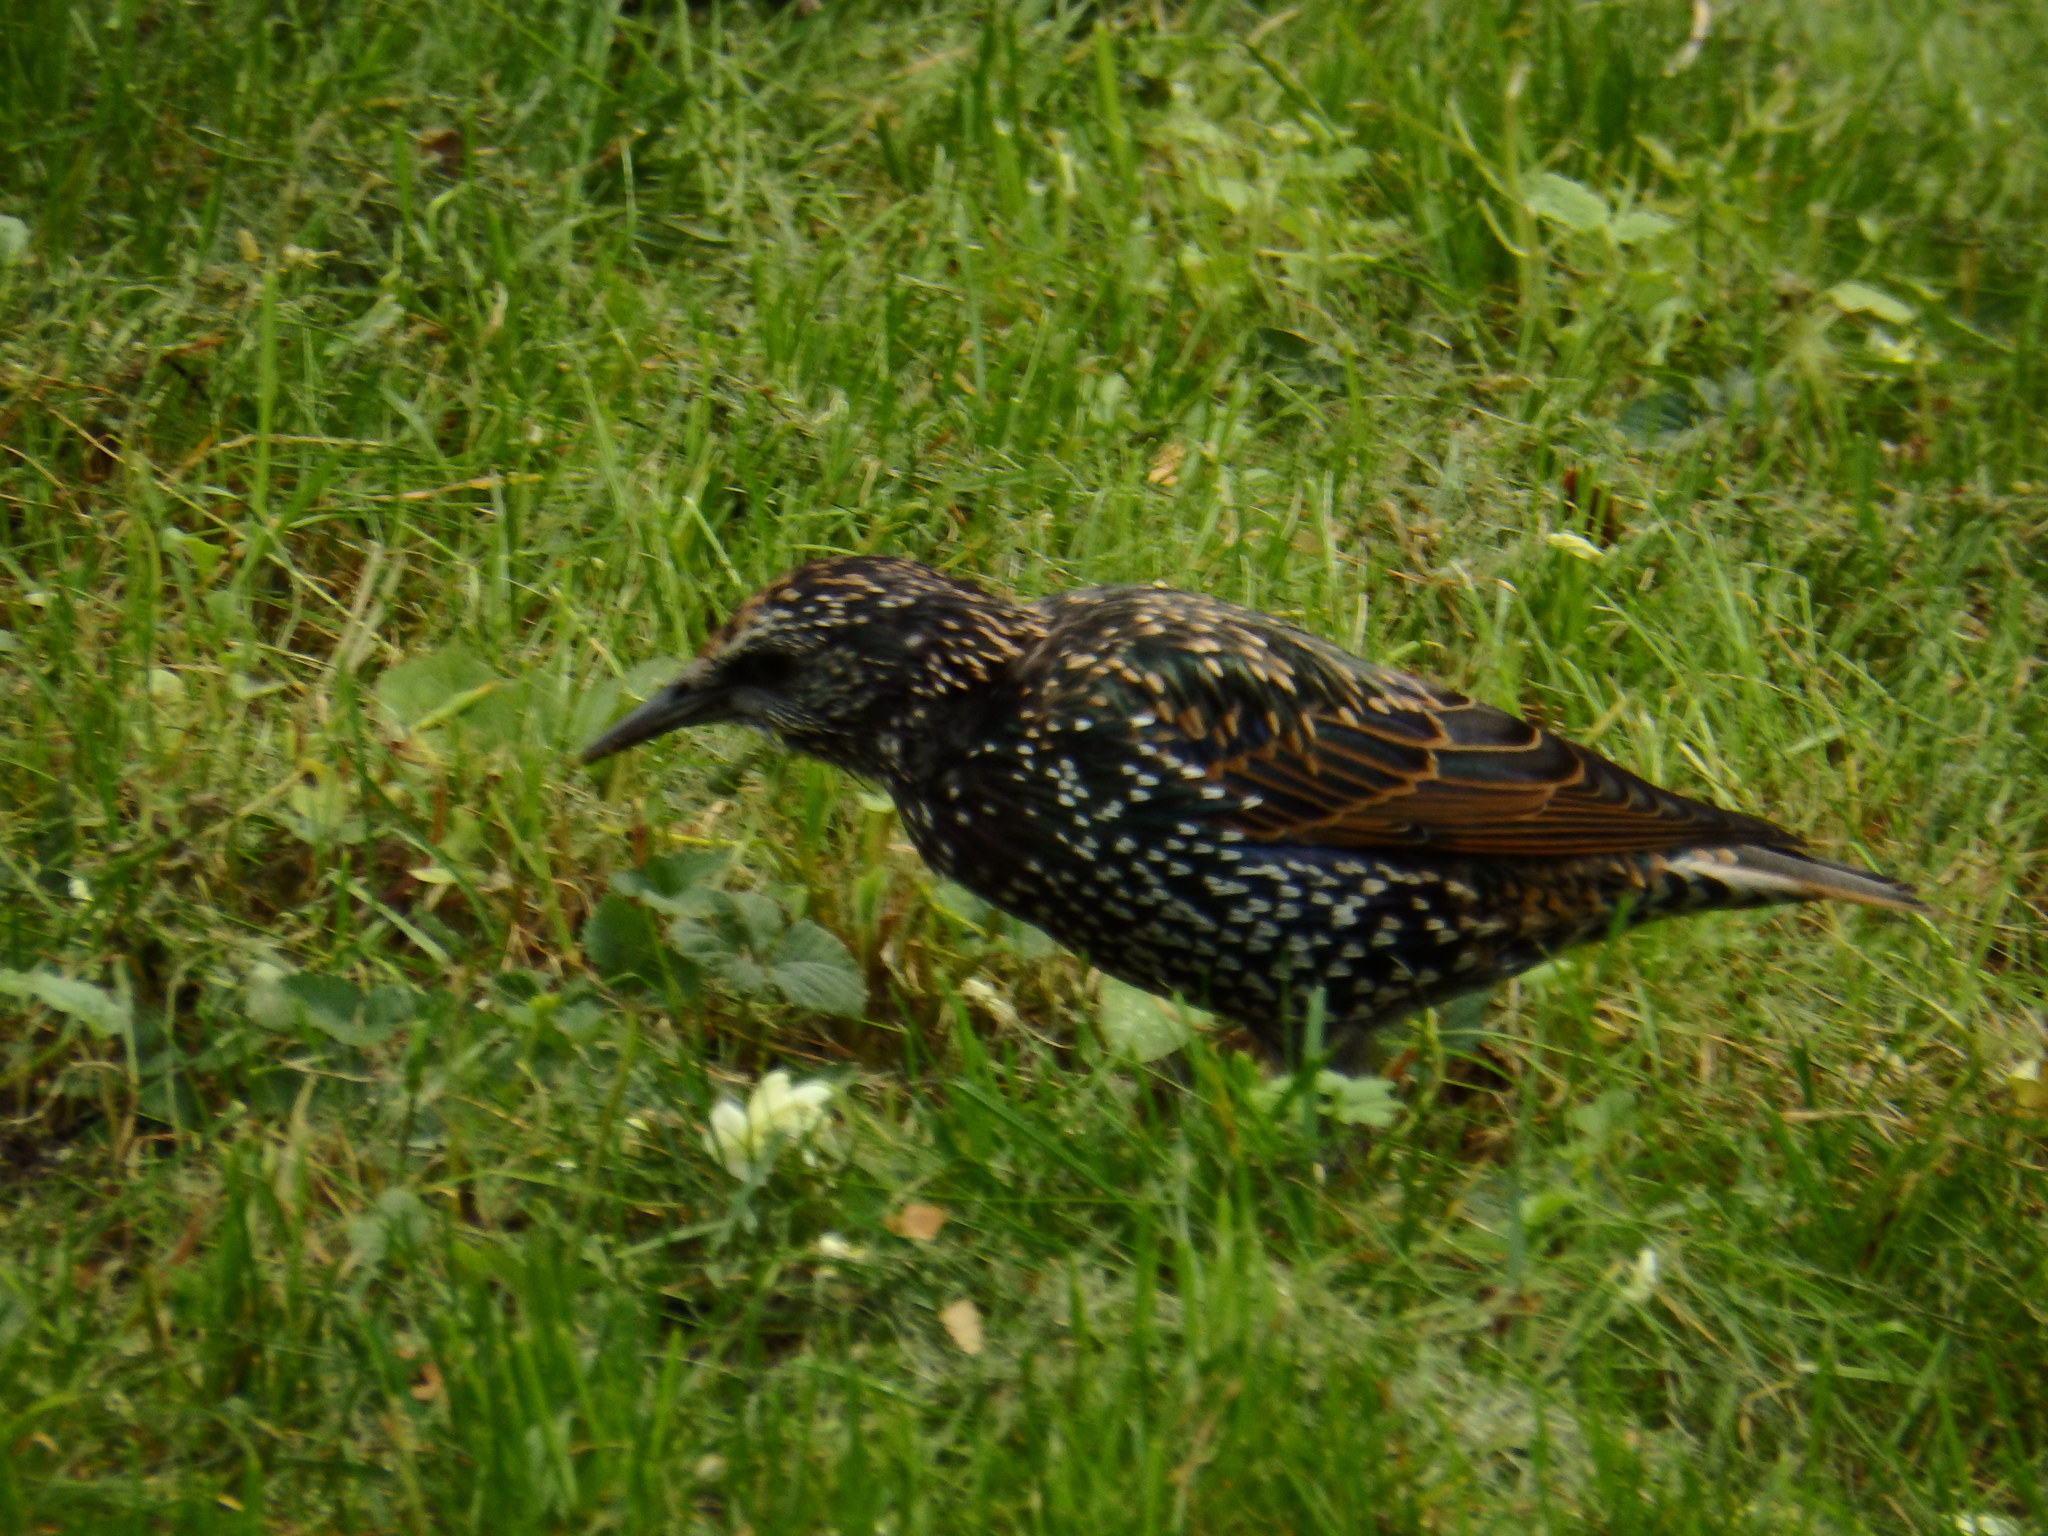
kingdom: Animalia
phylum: Chordata
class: Aves
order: Passeriformes
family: Sturnidae
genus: Sturnus
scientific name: Sturnus vulgaris
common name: Common starling
